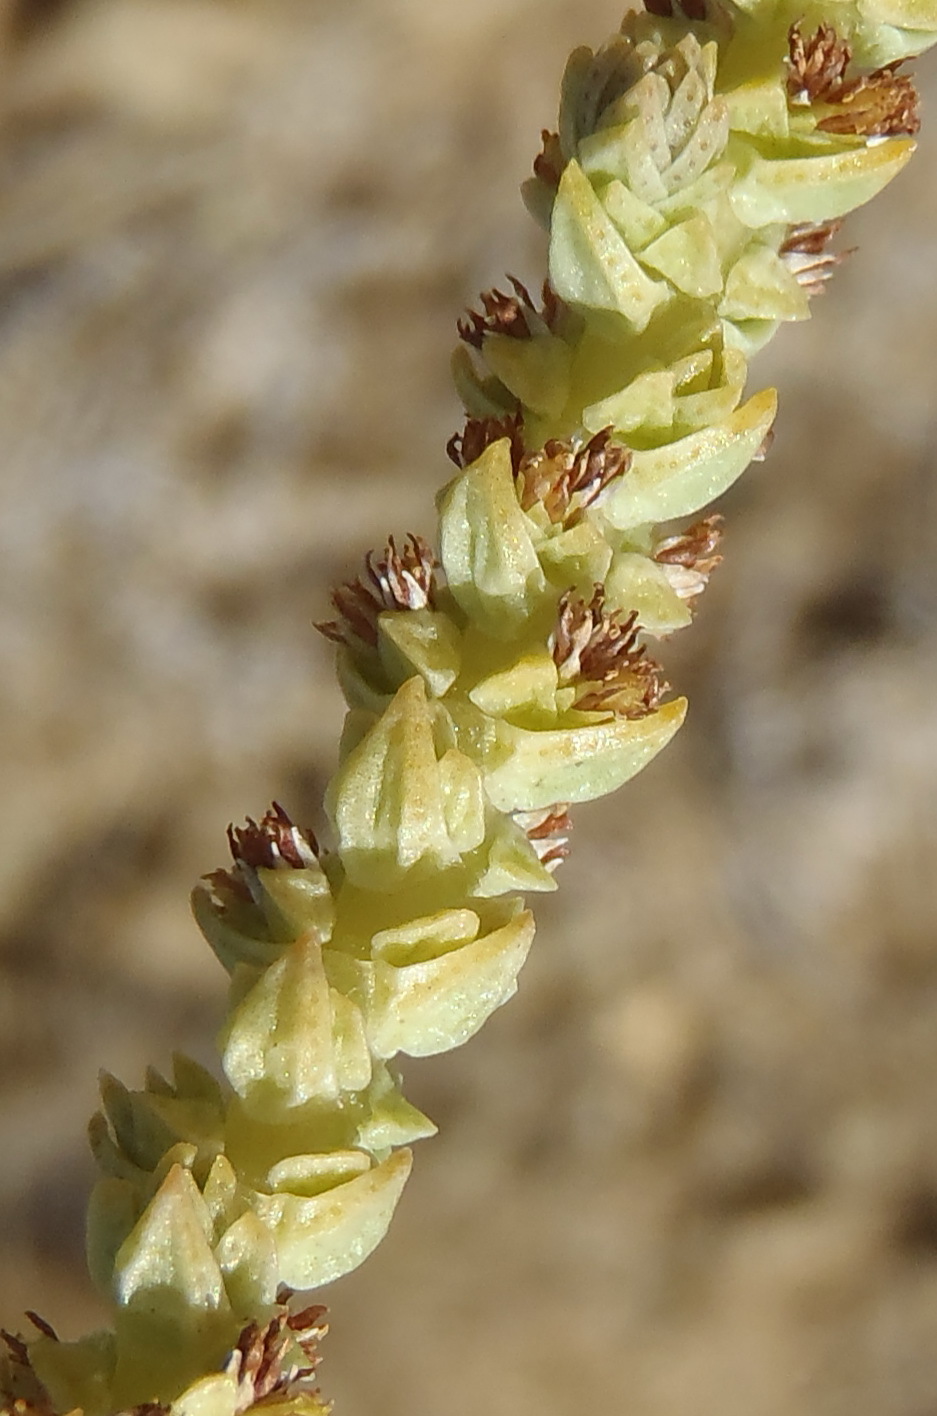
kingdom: Plantae
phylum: Tracheophyta
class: Magnoliopsida
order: Saxifragales
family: Crassulaceae
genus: Crassula
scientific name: Crassula muscosa
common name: Toy-cypress
